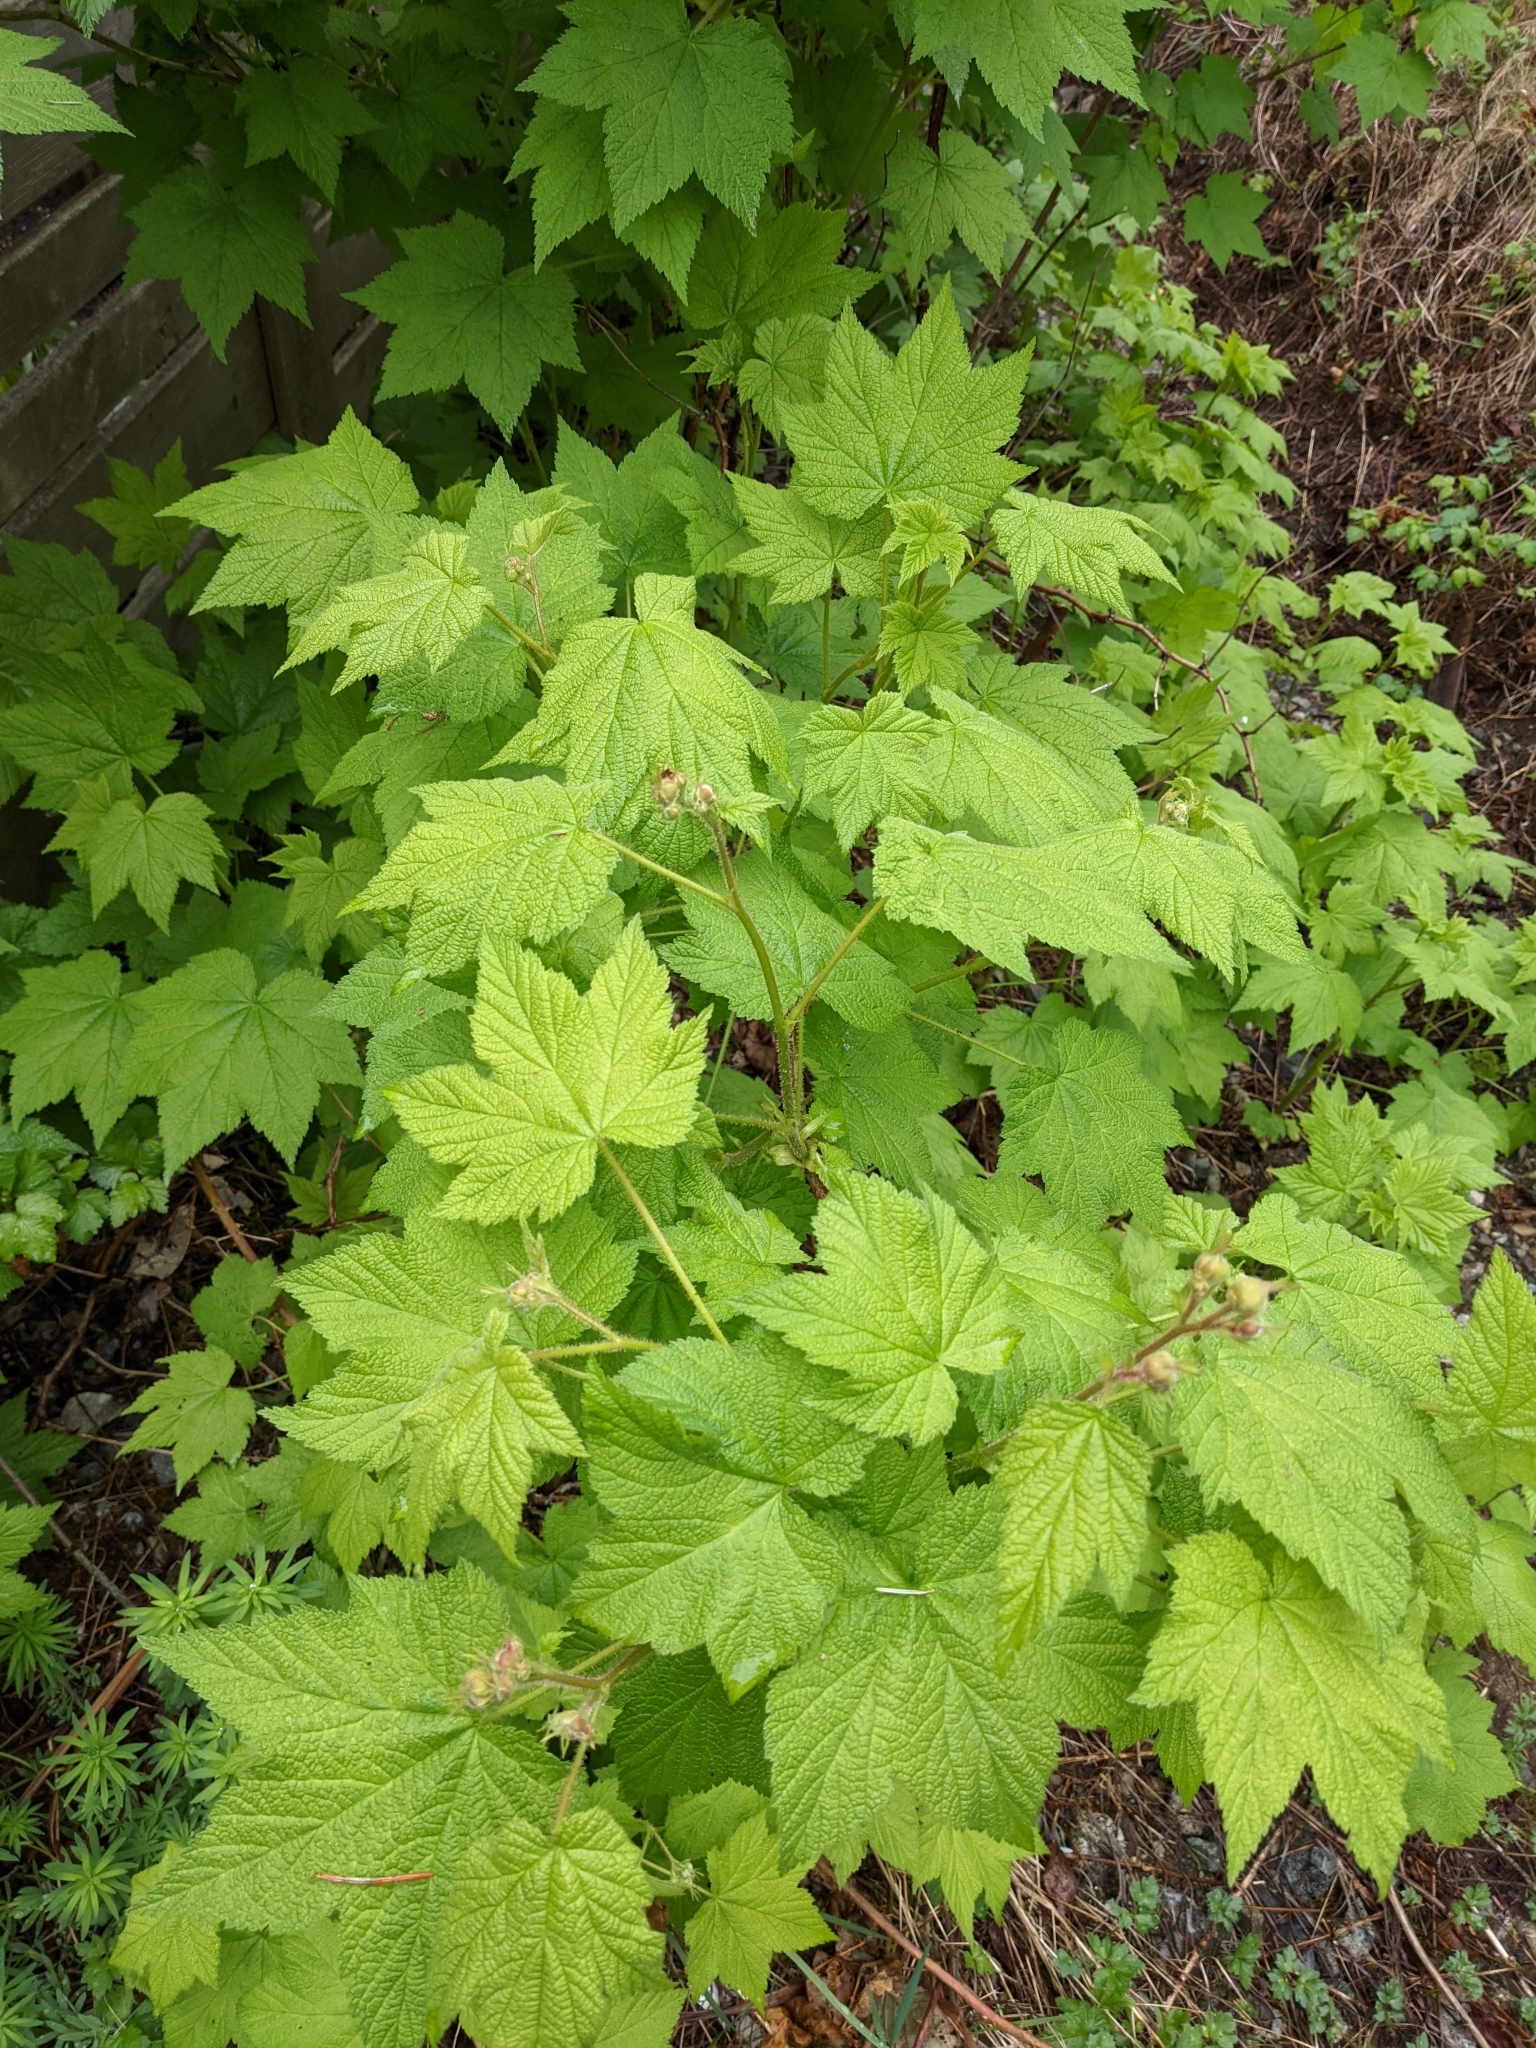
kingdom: Plantae
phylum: Tracheophyta
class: Magnoliopsida
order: Rosales
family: Rosaceae
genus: Rubus
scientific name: Rubus parviflorus
